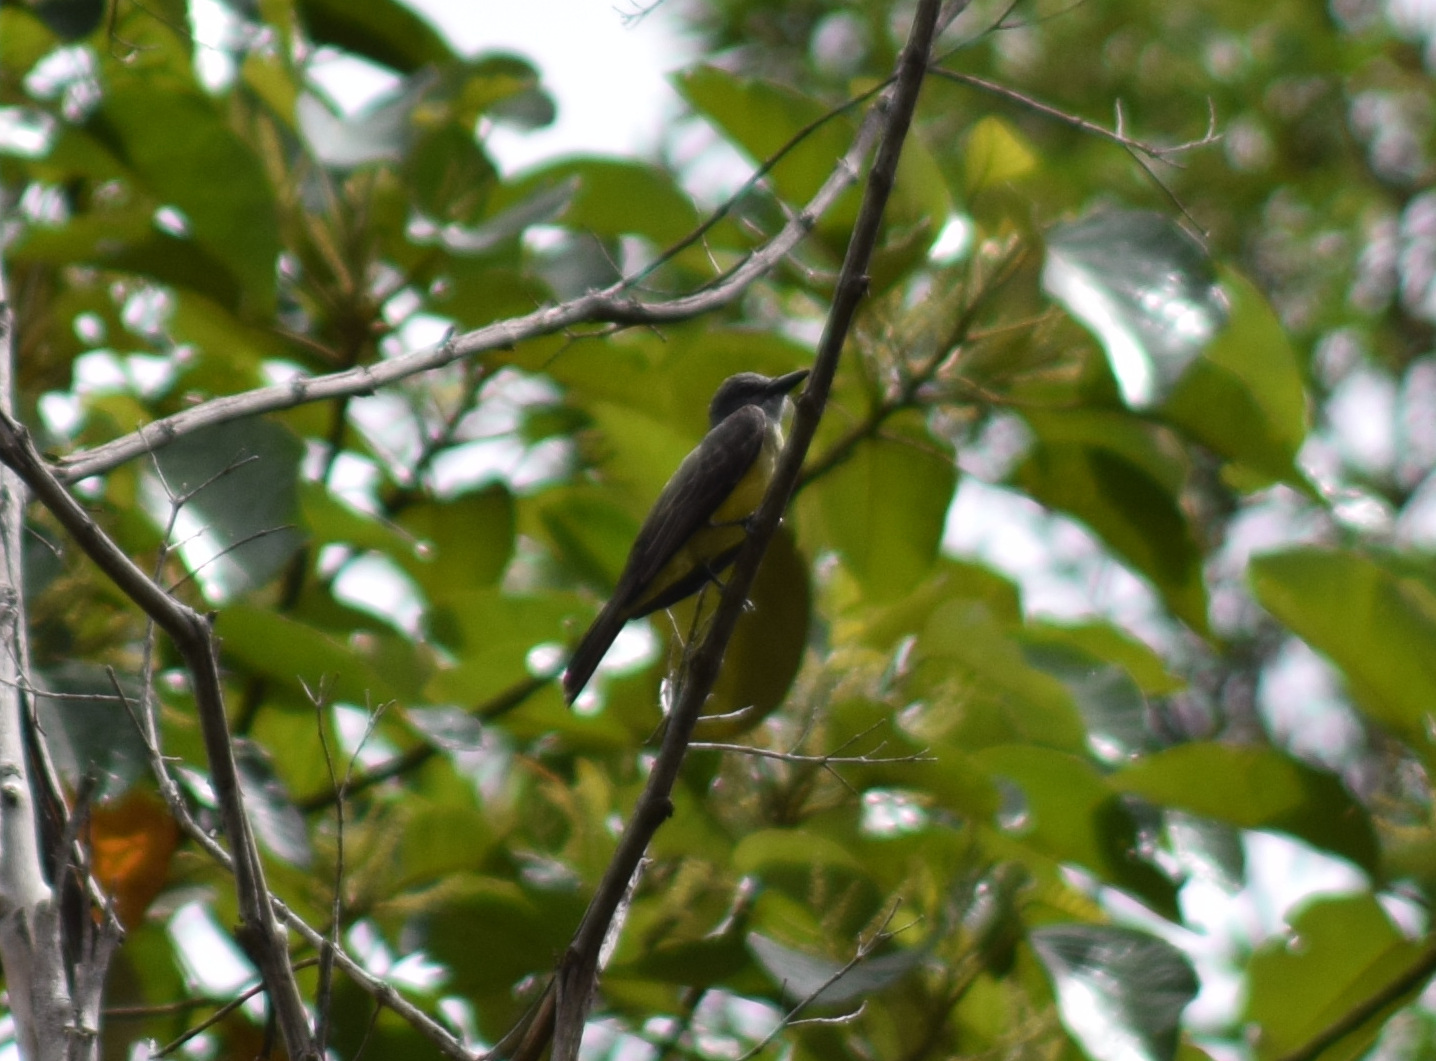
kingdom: Animalia
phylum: Chordata
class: Aves
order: Passeriformes
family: Tyrannidae
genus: Tyrannus
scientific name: Tyrannus melancholicus
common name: Tropical kingbird
